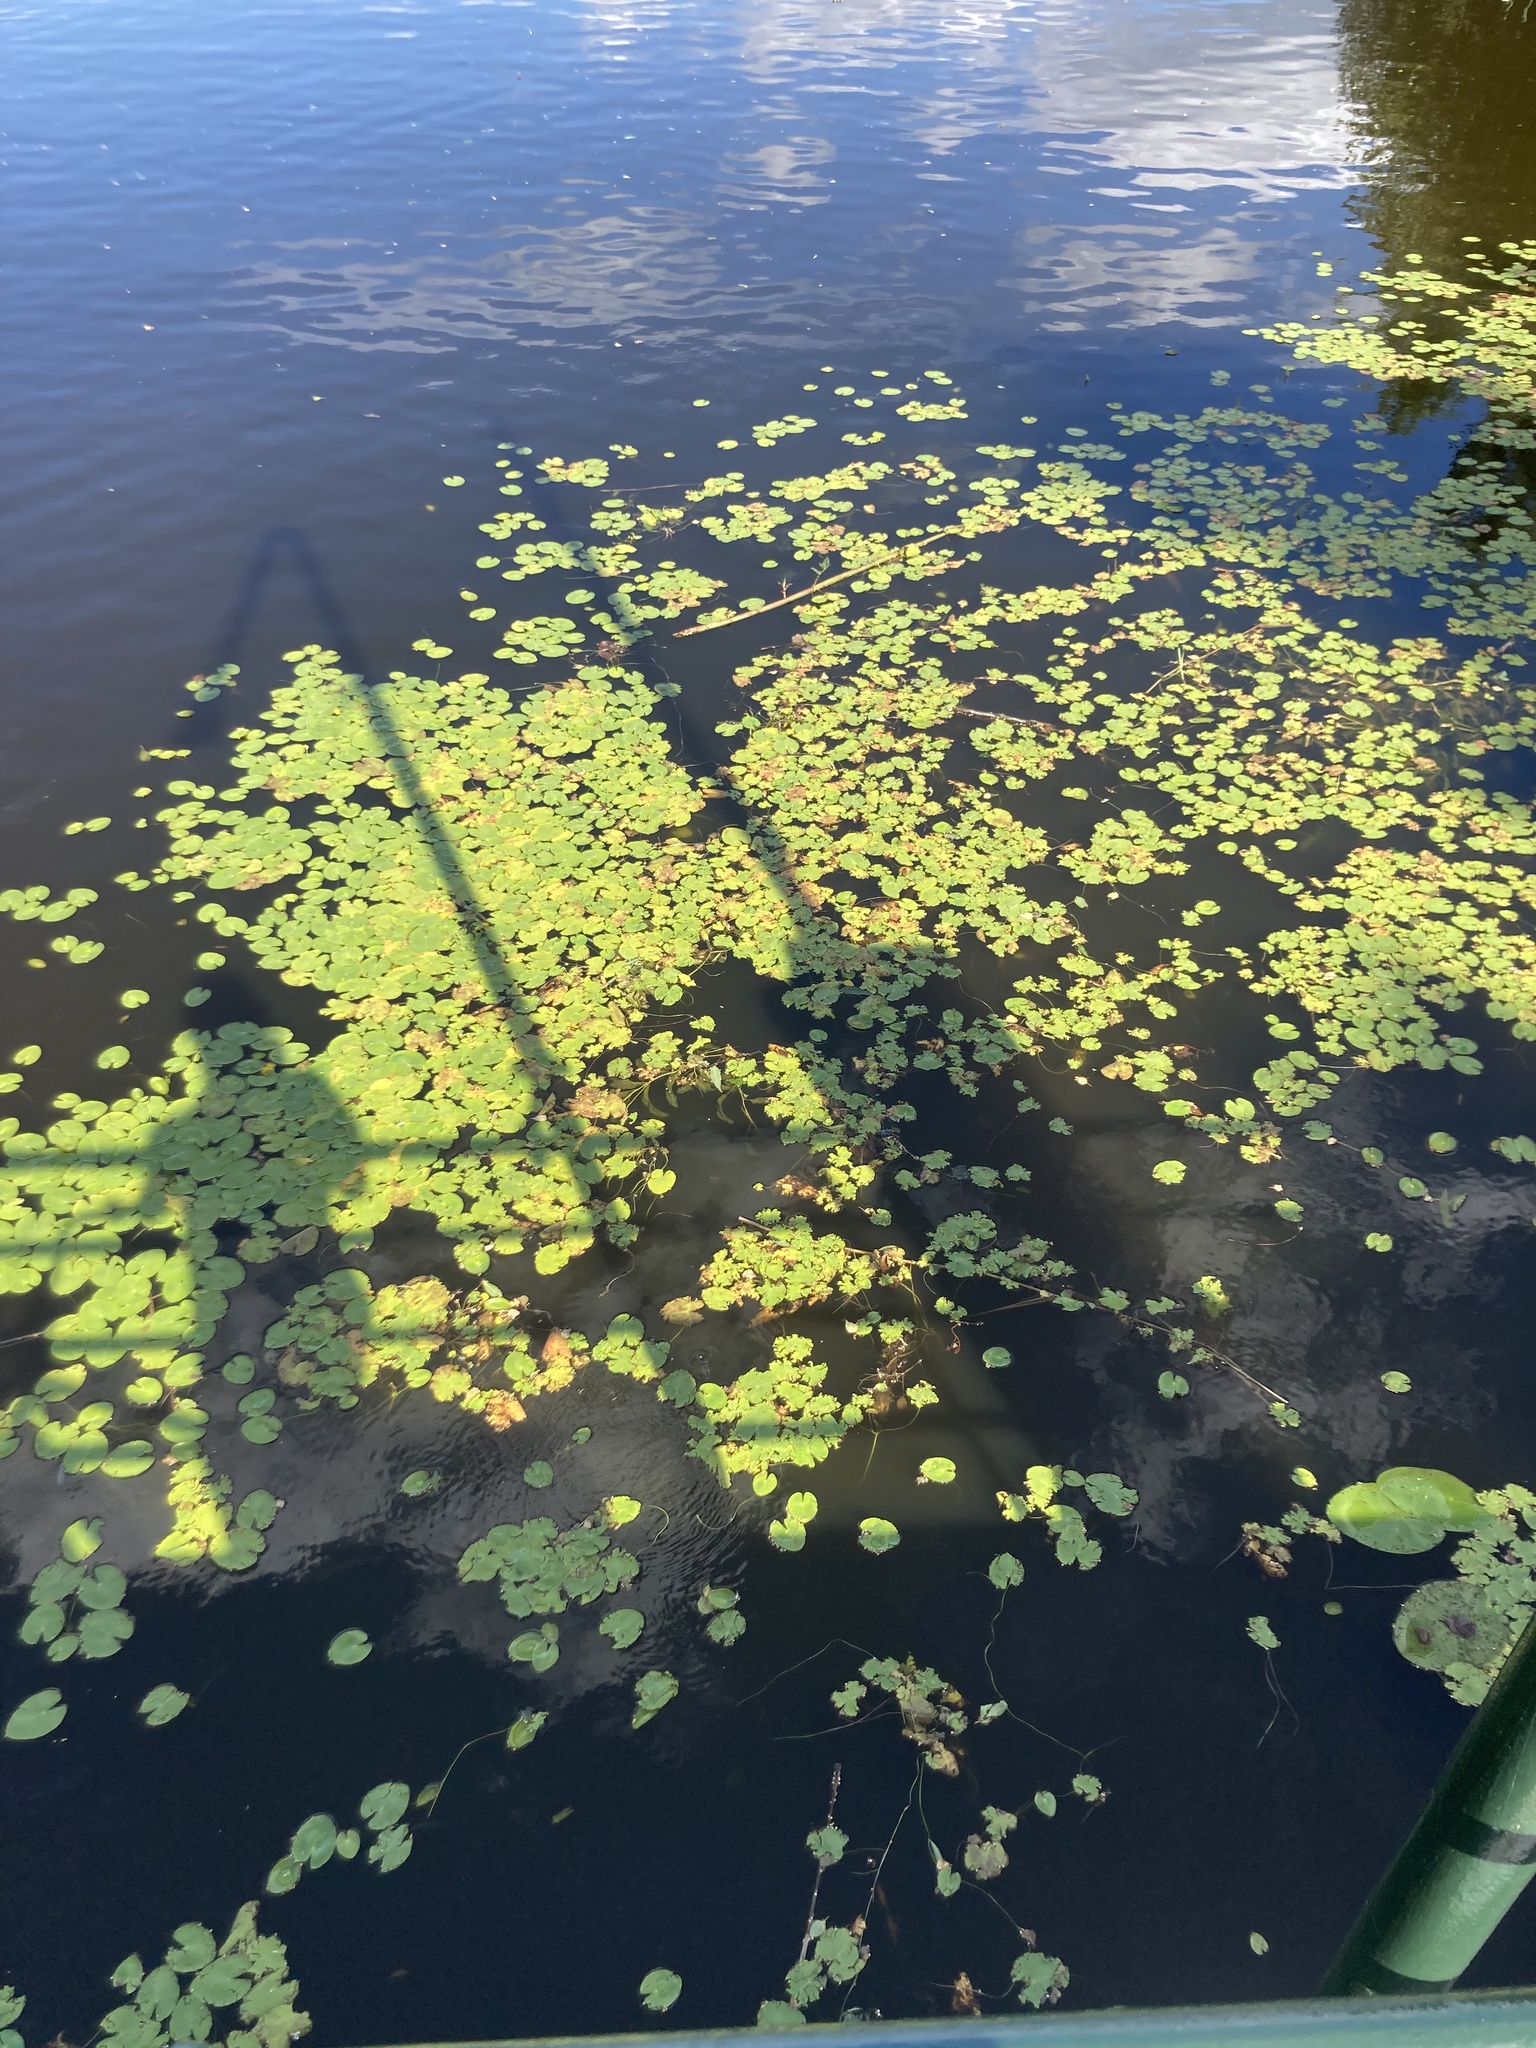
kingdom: Plantae
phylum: Tracheophyta
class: Magnoliopsida
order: Asterales
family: Menyanthaceae
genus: Nymphoides
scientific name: Nymphoides peltata
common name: Fringed water-lily
